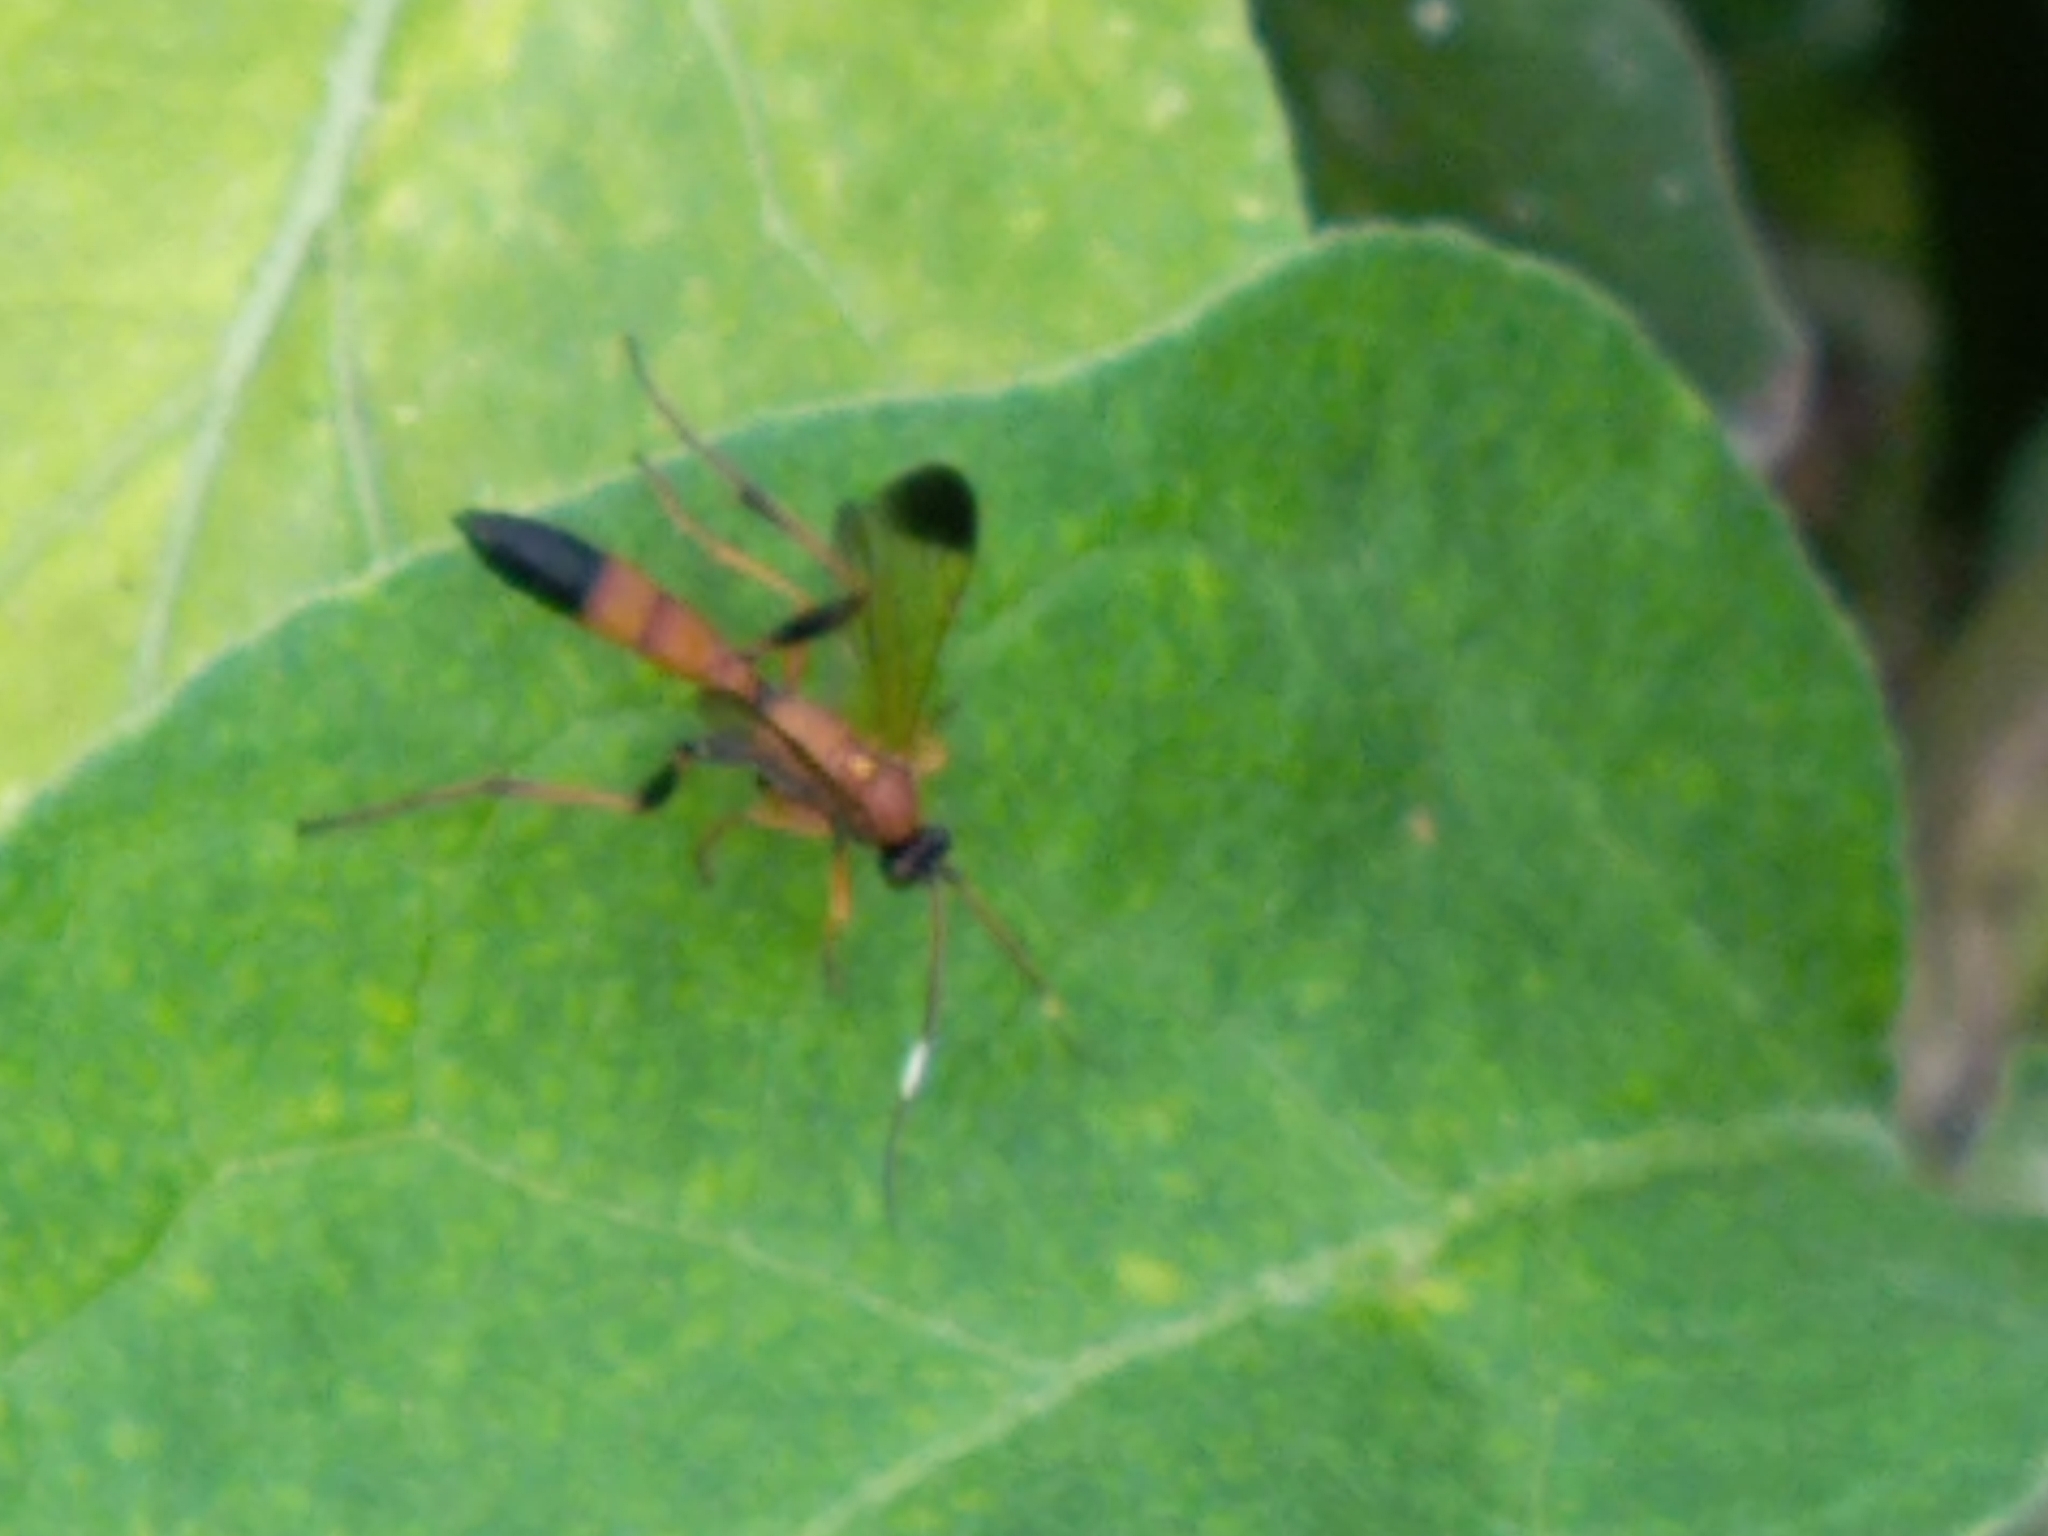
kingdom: Animalia
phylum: Arthropoda
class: Insecta
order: Hymenoptera
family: Ichneumonidae
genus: Ctenochares
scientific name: Ctenochares bicolorus
